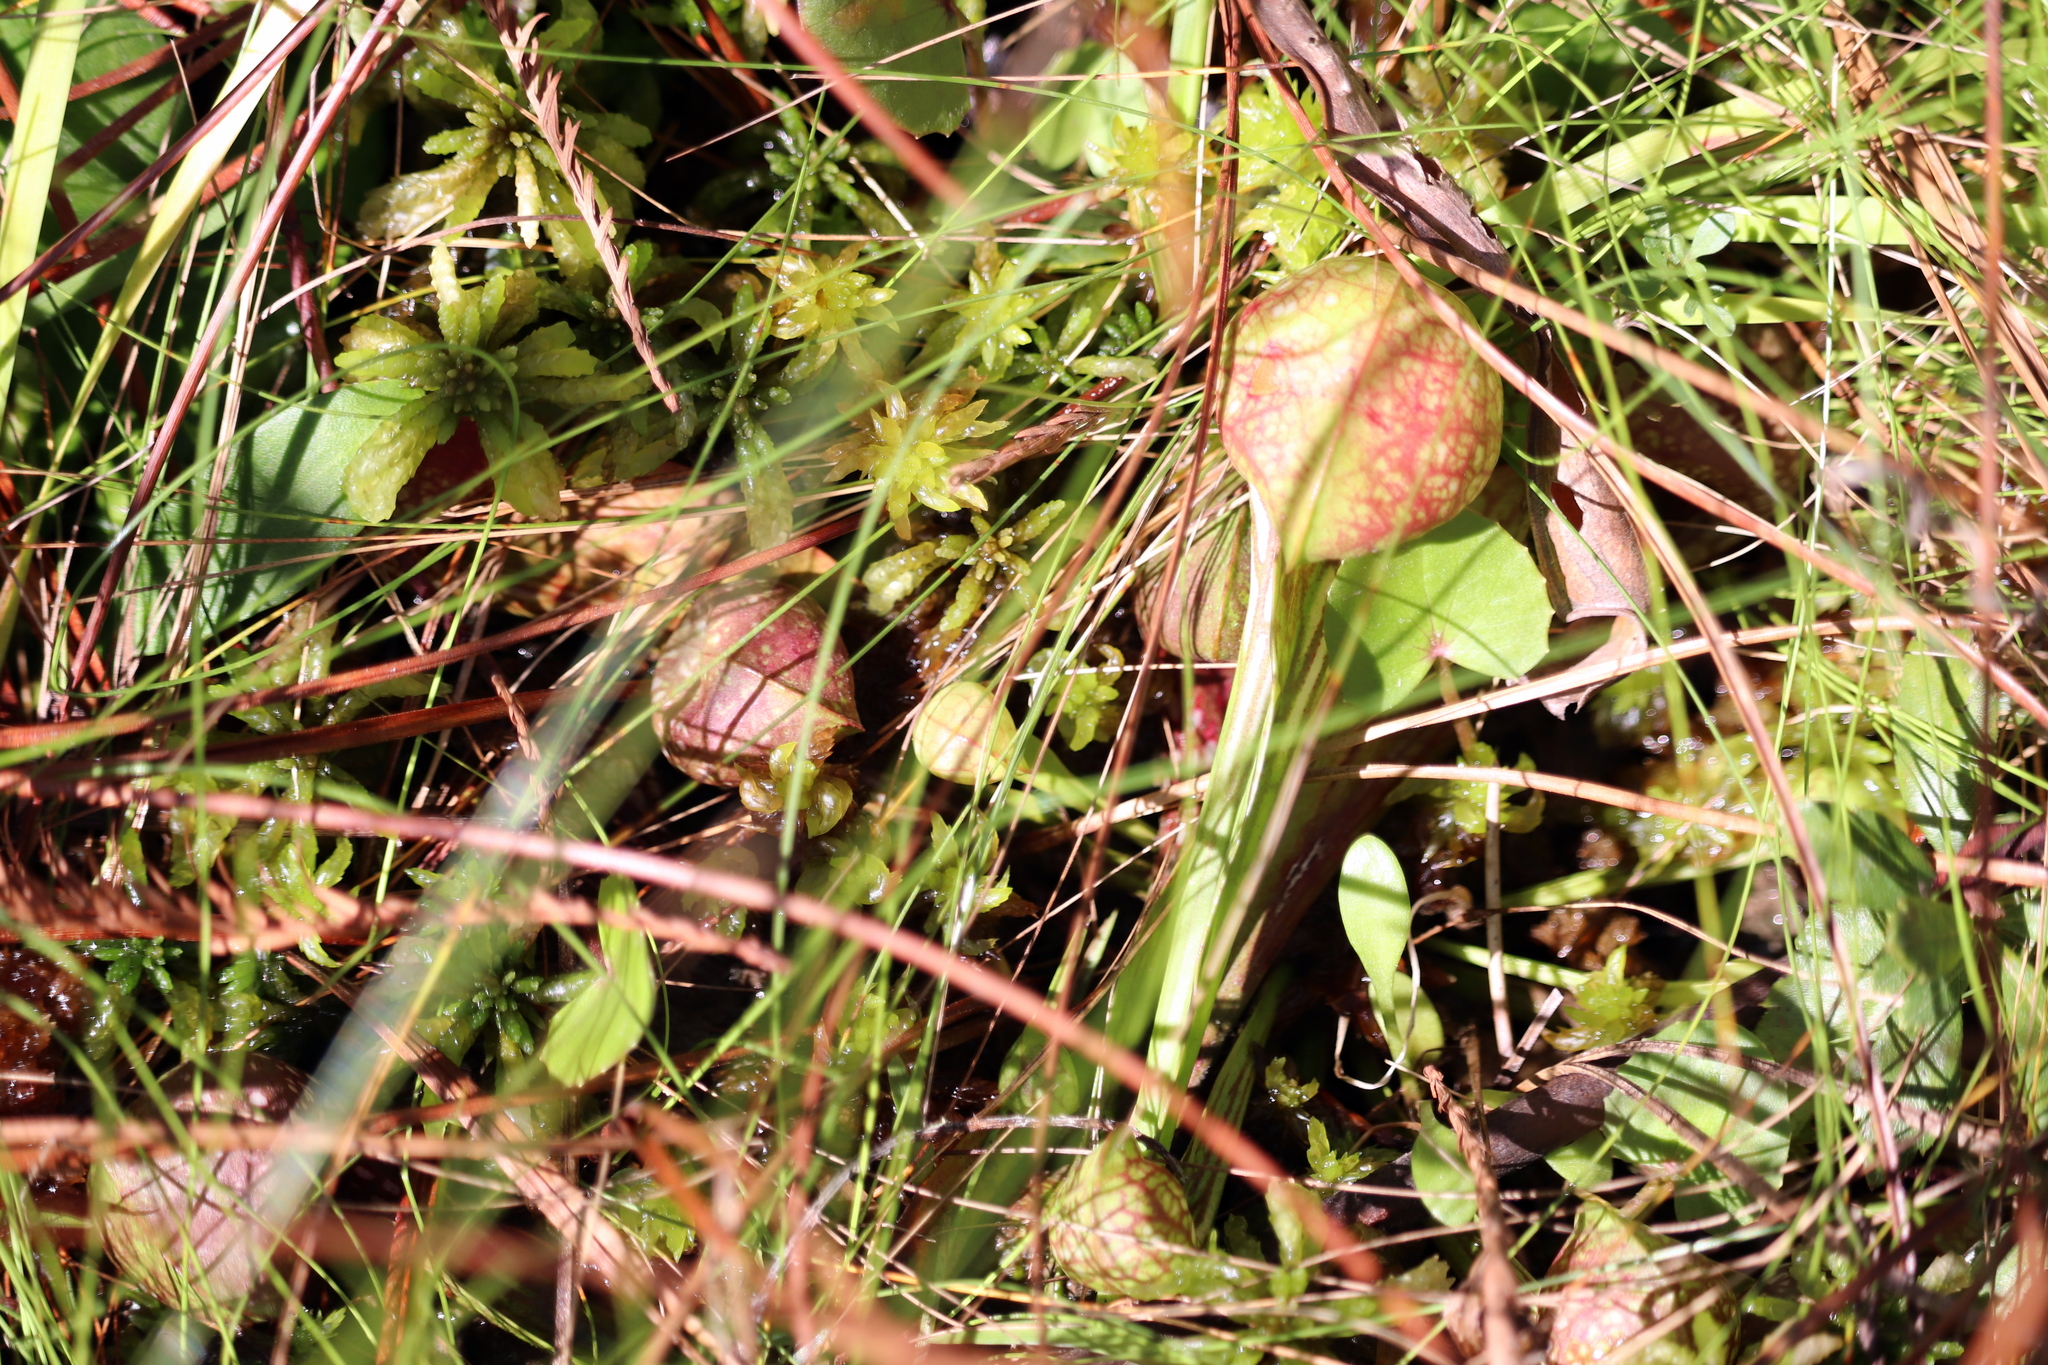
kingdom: Plantae
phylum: Tracheophyta
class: Magnoliopsida
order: Ericales
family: Sarraceniaceae
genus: Sarracenia
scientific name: Sarracenia psittacina
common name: Parrot pitcherplant
